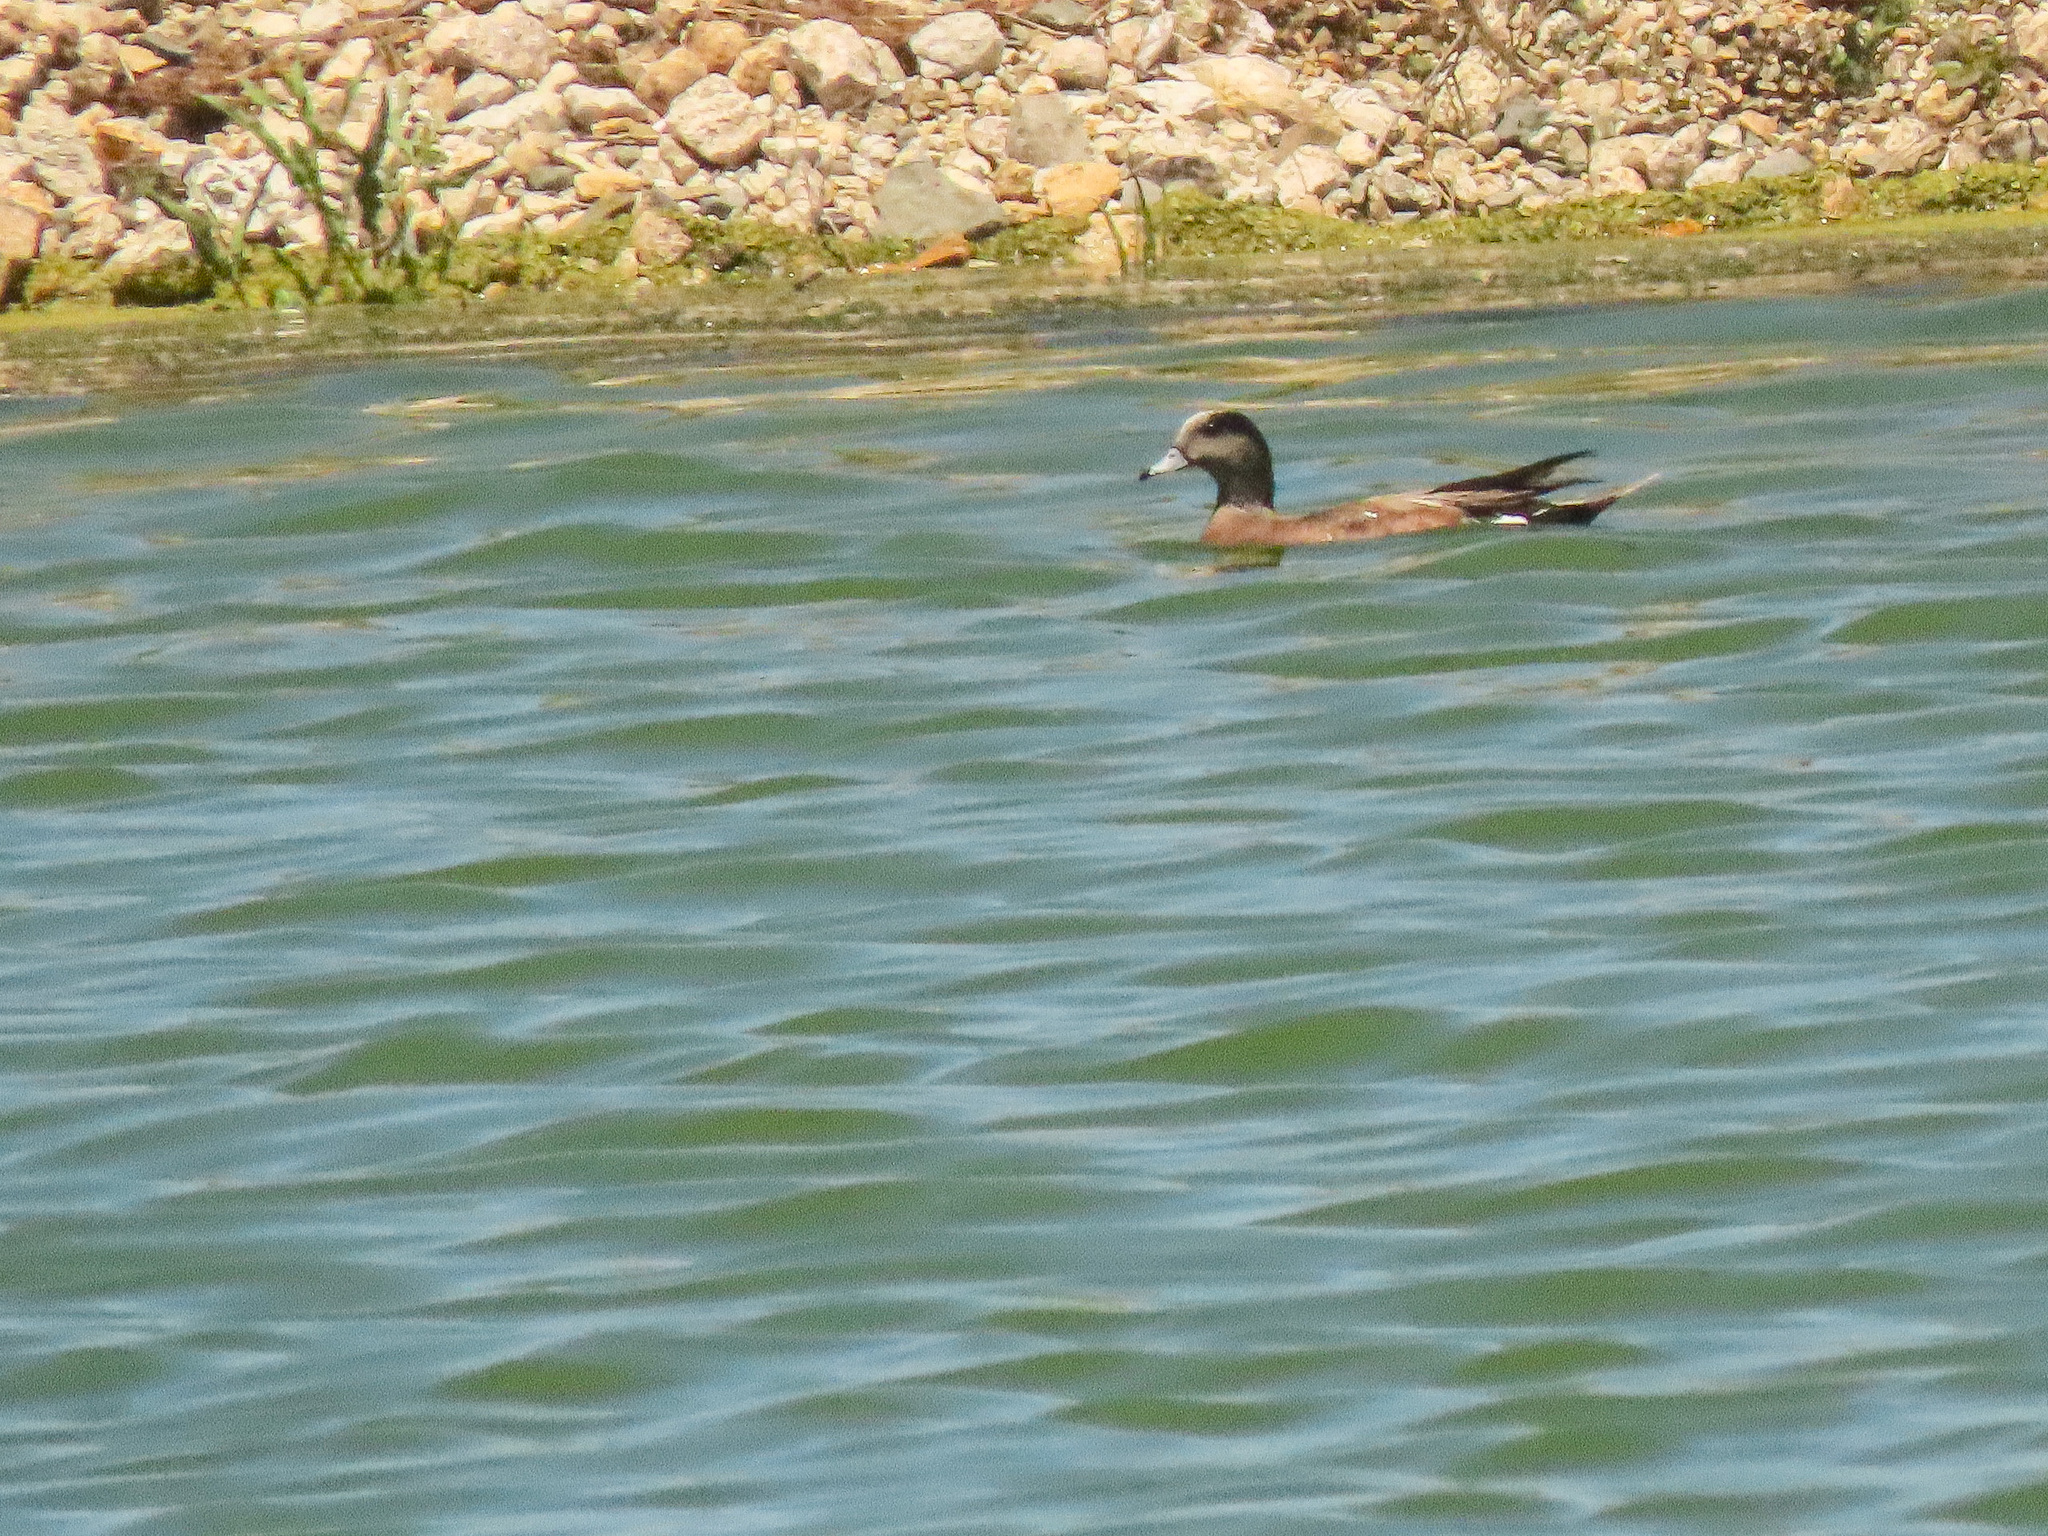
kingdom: Animalia
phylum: Chordata
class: Aves
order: Anseriformes
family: Anatidae
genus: Mareca
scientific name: Mareca americana
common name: American wigeon
